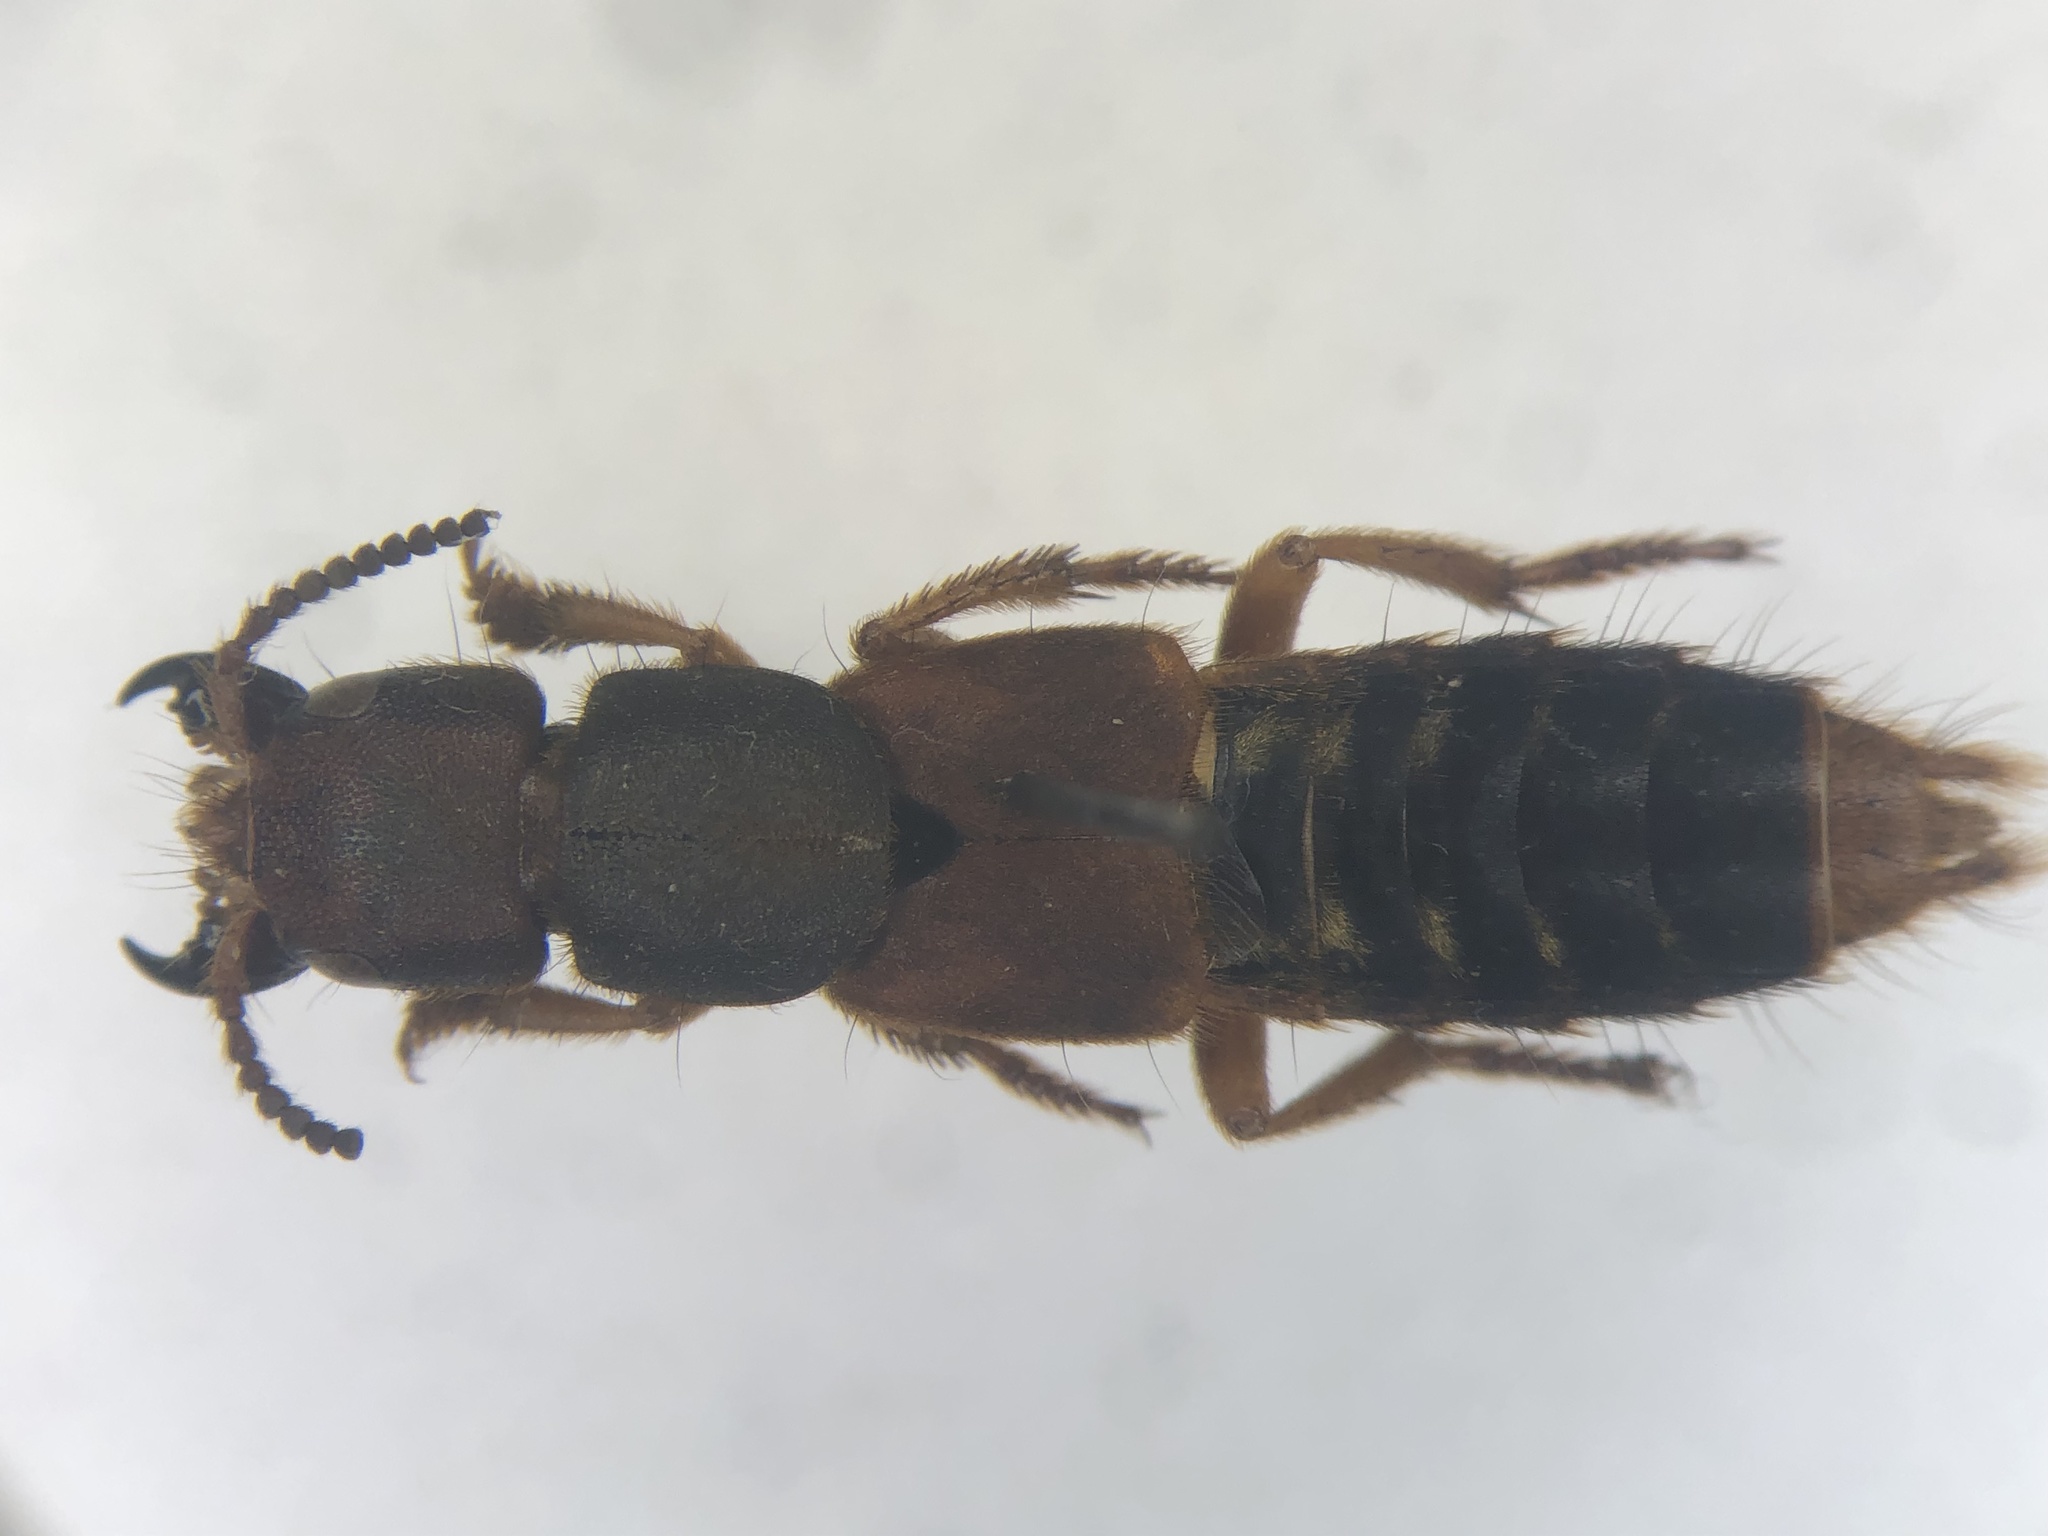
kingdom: Animalia
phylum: Arthropoda
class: Insecta
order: Coleoptera
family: Staphylinidae
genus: Platydracus
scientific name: Platydracus immaculatus
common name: Immaculate rove beetle
